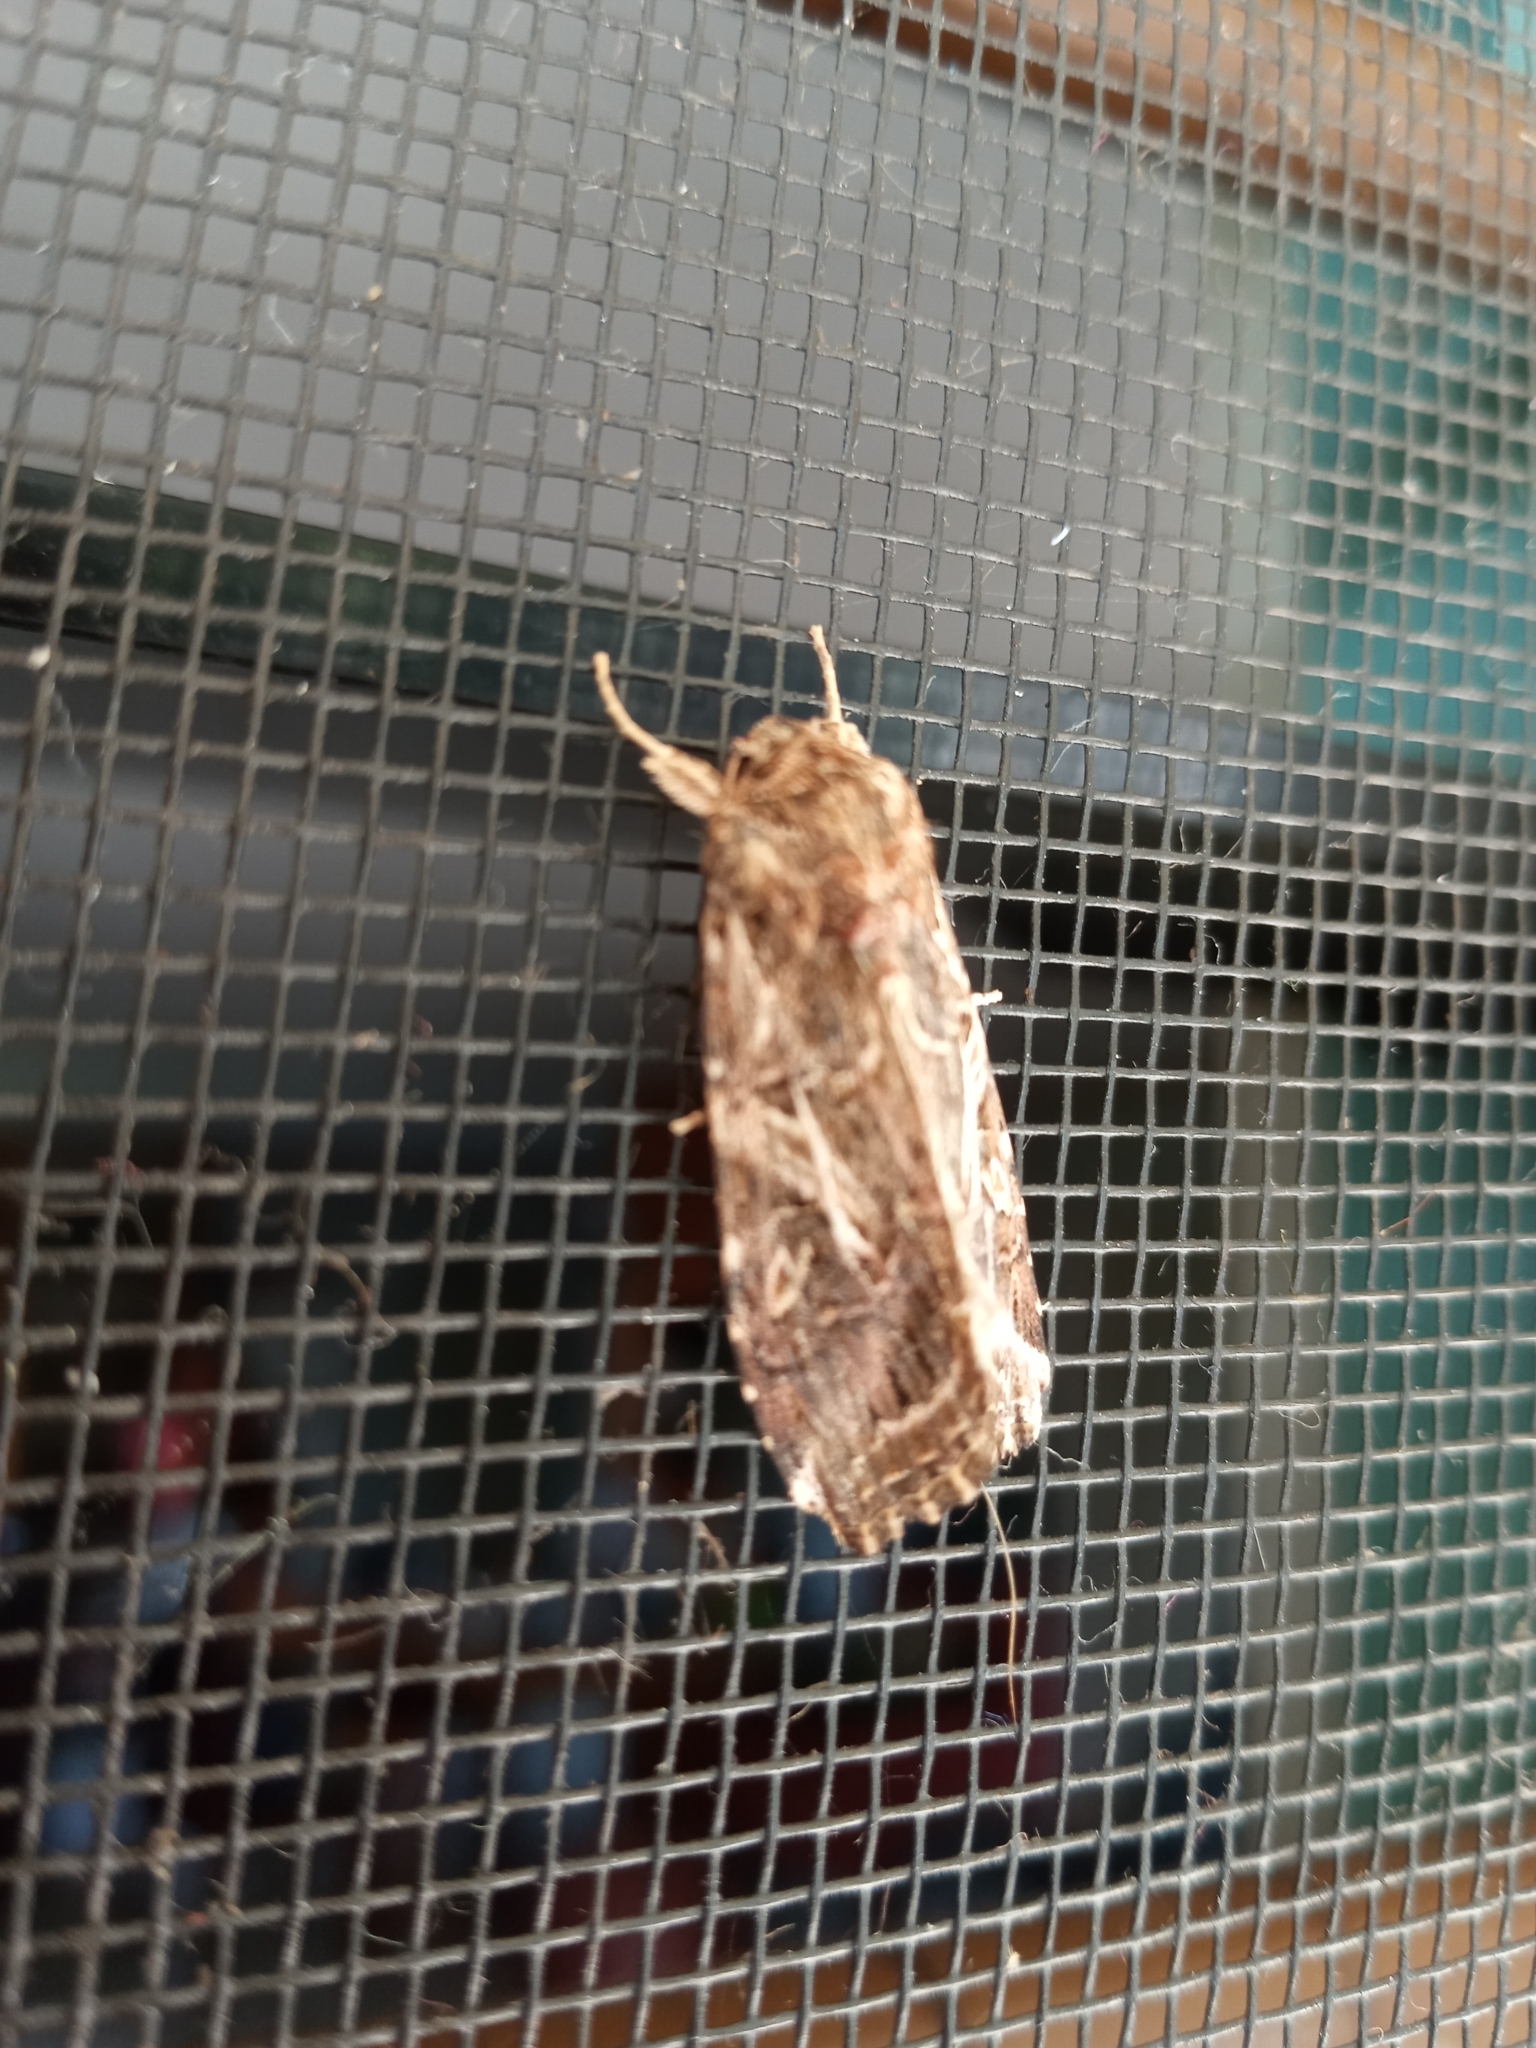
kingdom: Animalia
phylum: Arthropoda
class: Insecta
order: Lepidoptera
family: Noctuidae
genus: Spodoptera
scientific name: Spodoptera litura
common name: Asian cotton leafworm
